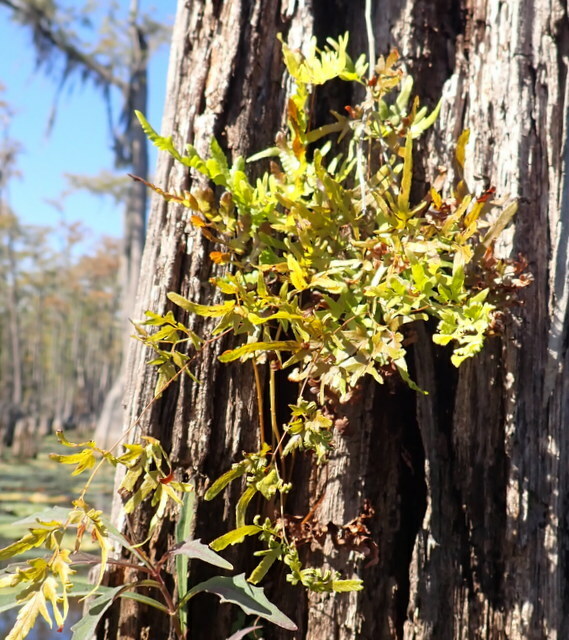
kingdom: Plantae
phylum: Tracheophyta
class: Polypodiopsida
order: Schizaeales
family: Lygodiaceae
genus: Lygodium
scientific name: Lygodium japonicum
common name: Japanese climbing fern
